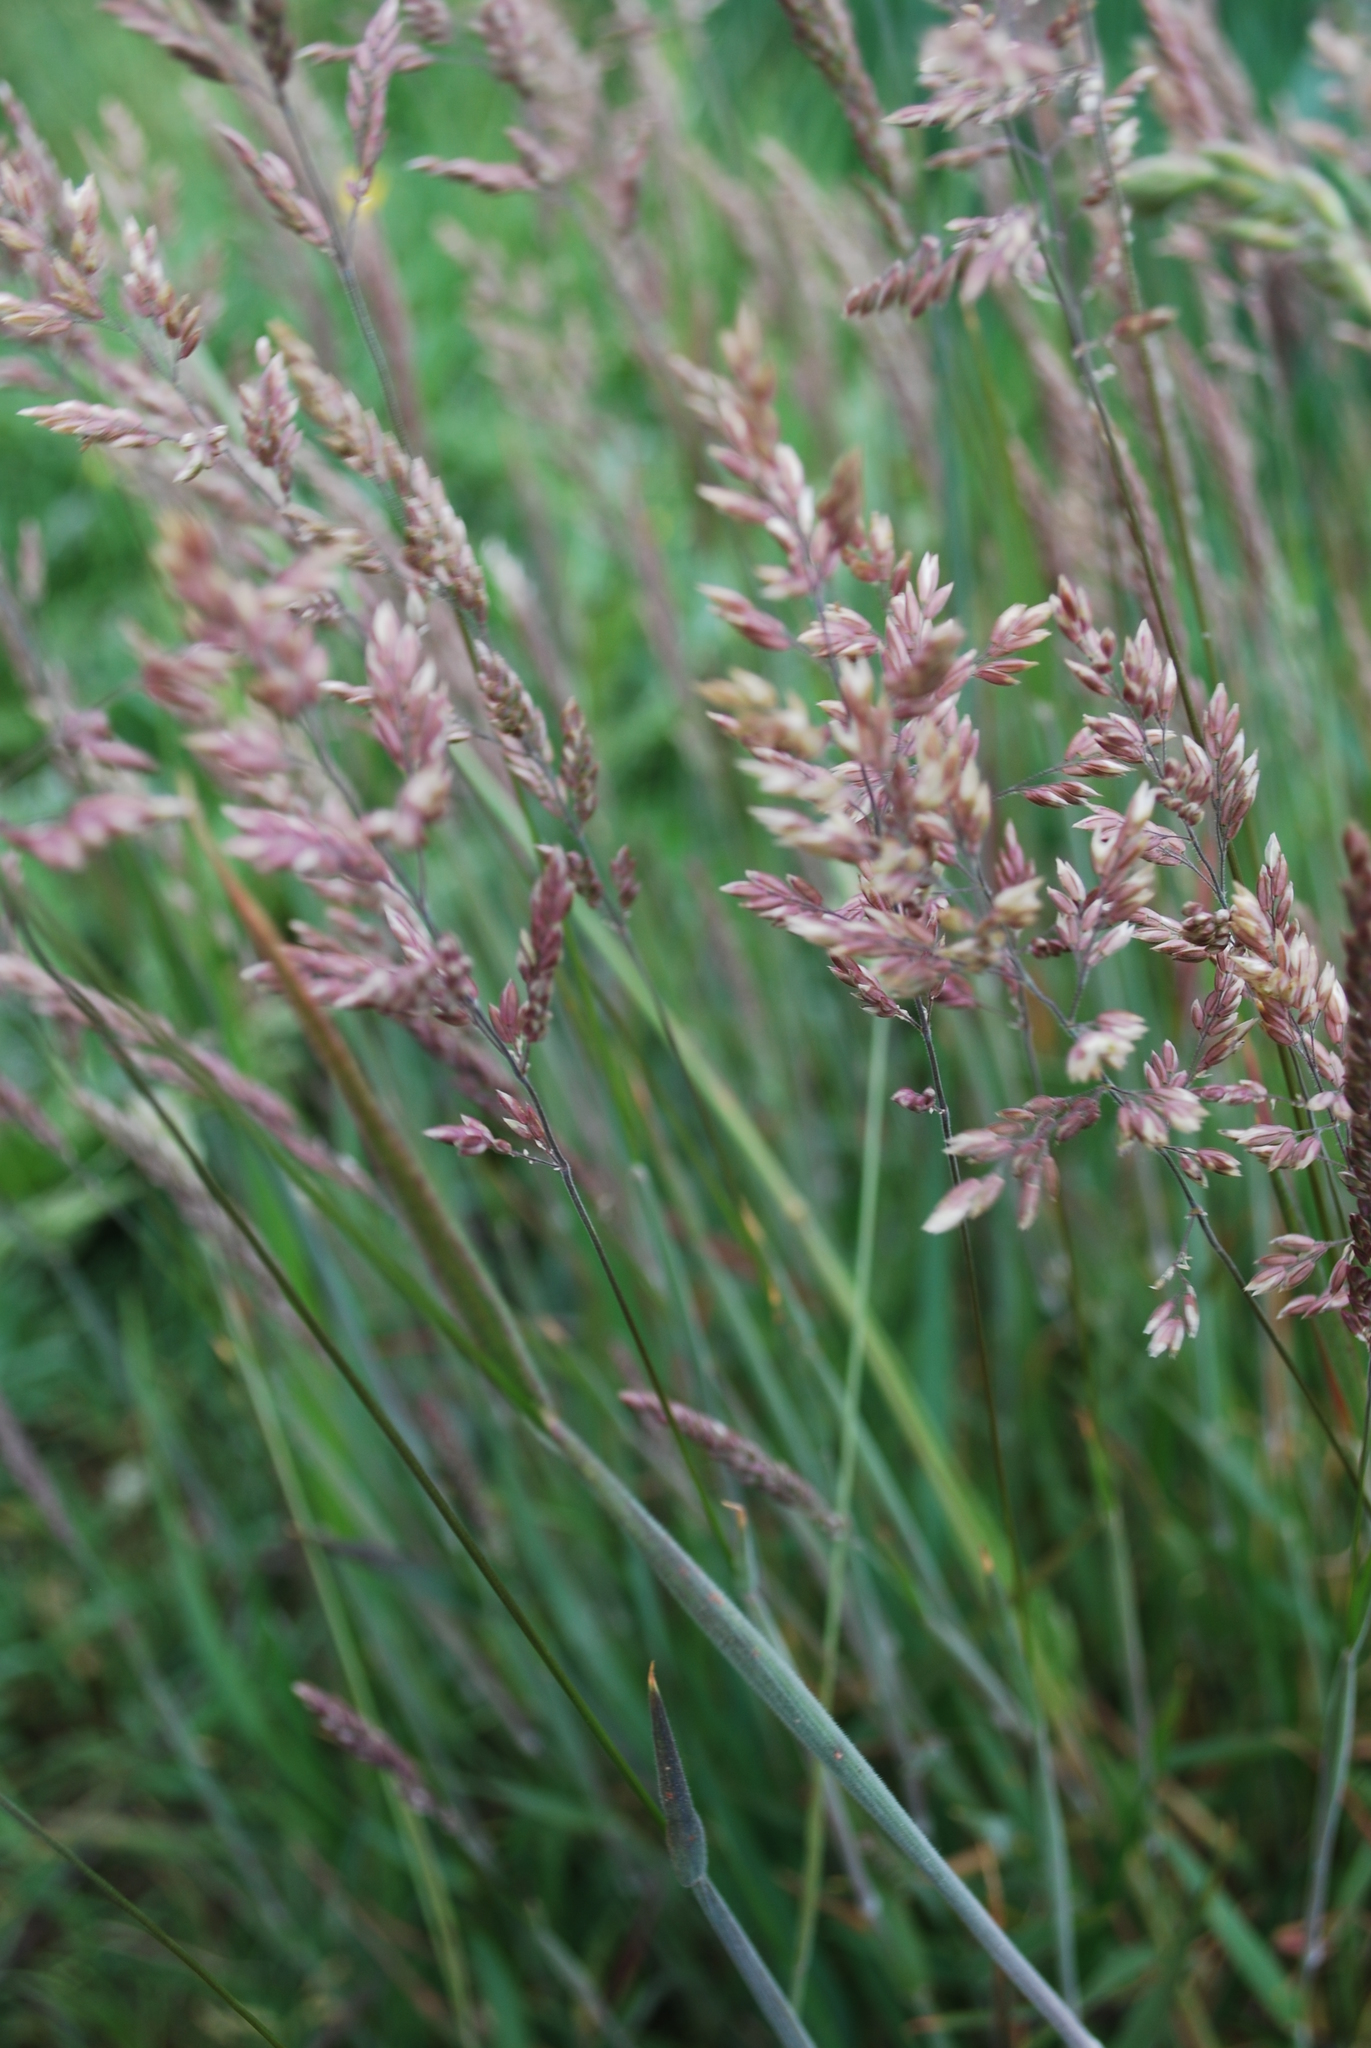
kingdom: Plantae
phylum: Tracheophyta
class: Liliopsida
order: Poales
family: Poaceae
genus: Holcus
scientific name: Holcus lanatus
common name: Yorkshire-fog
